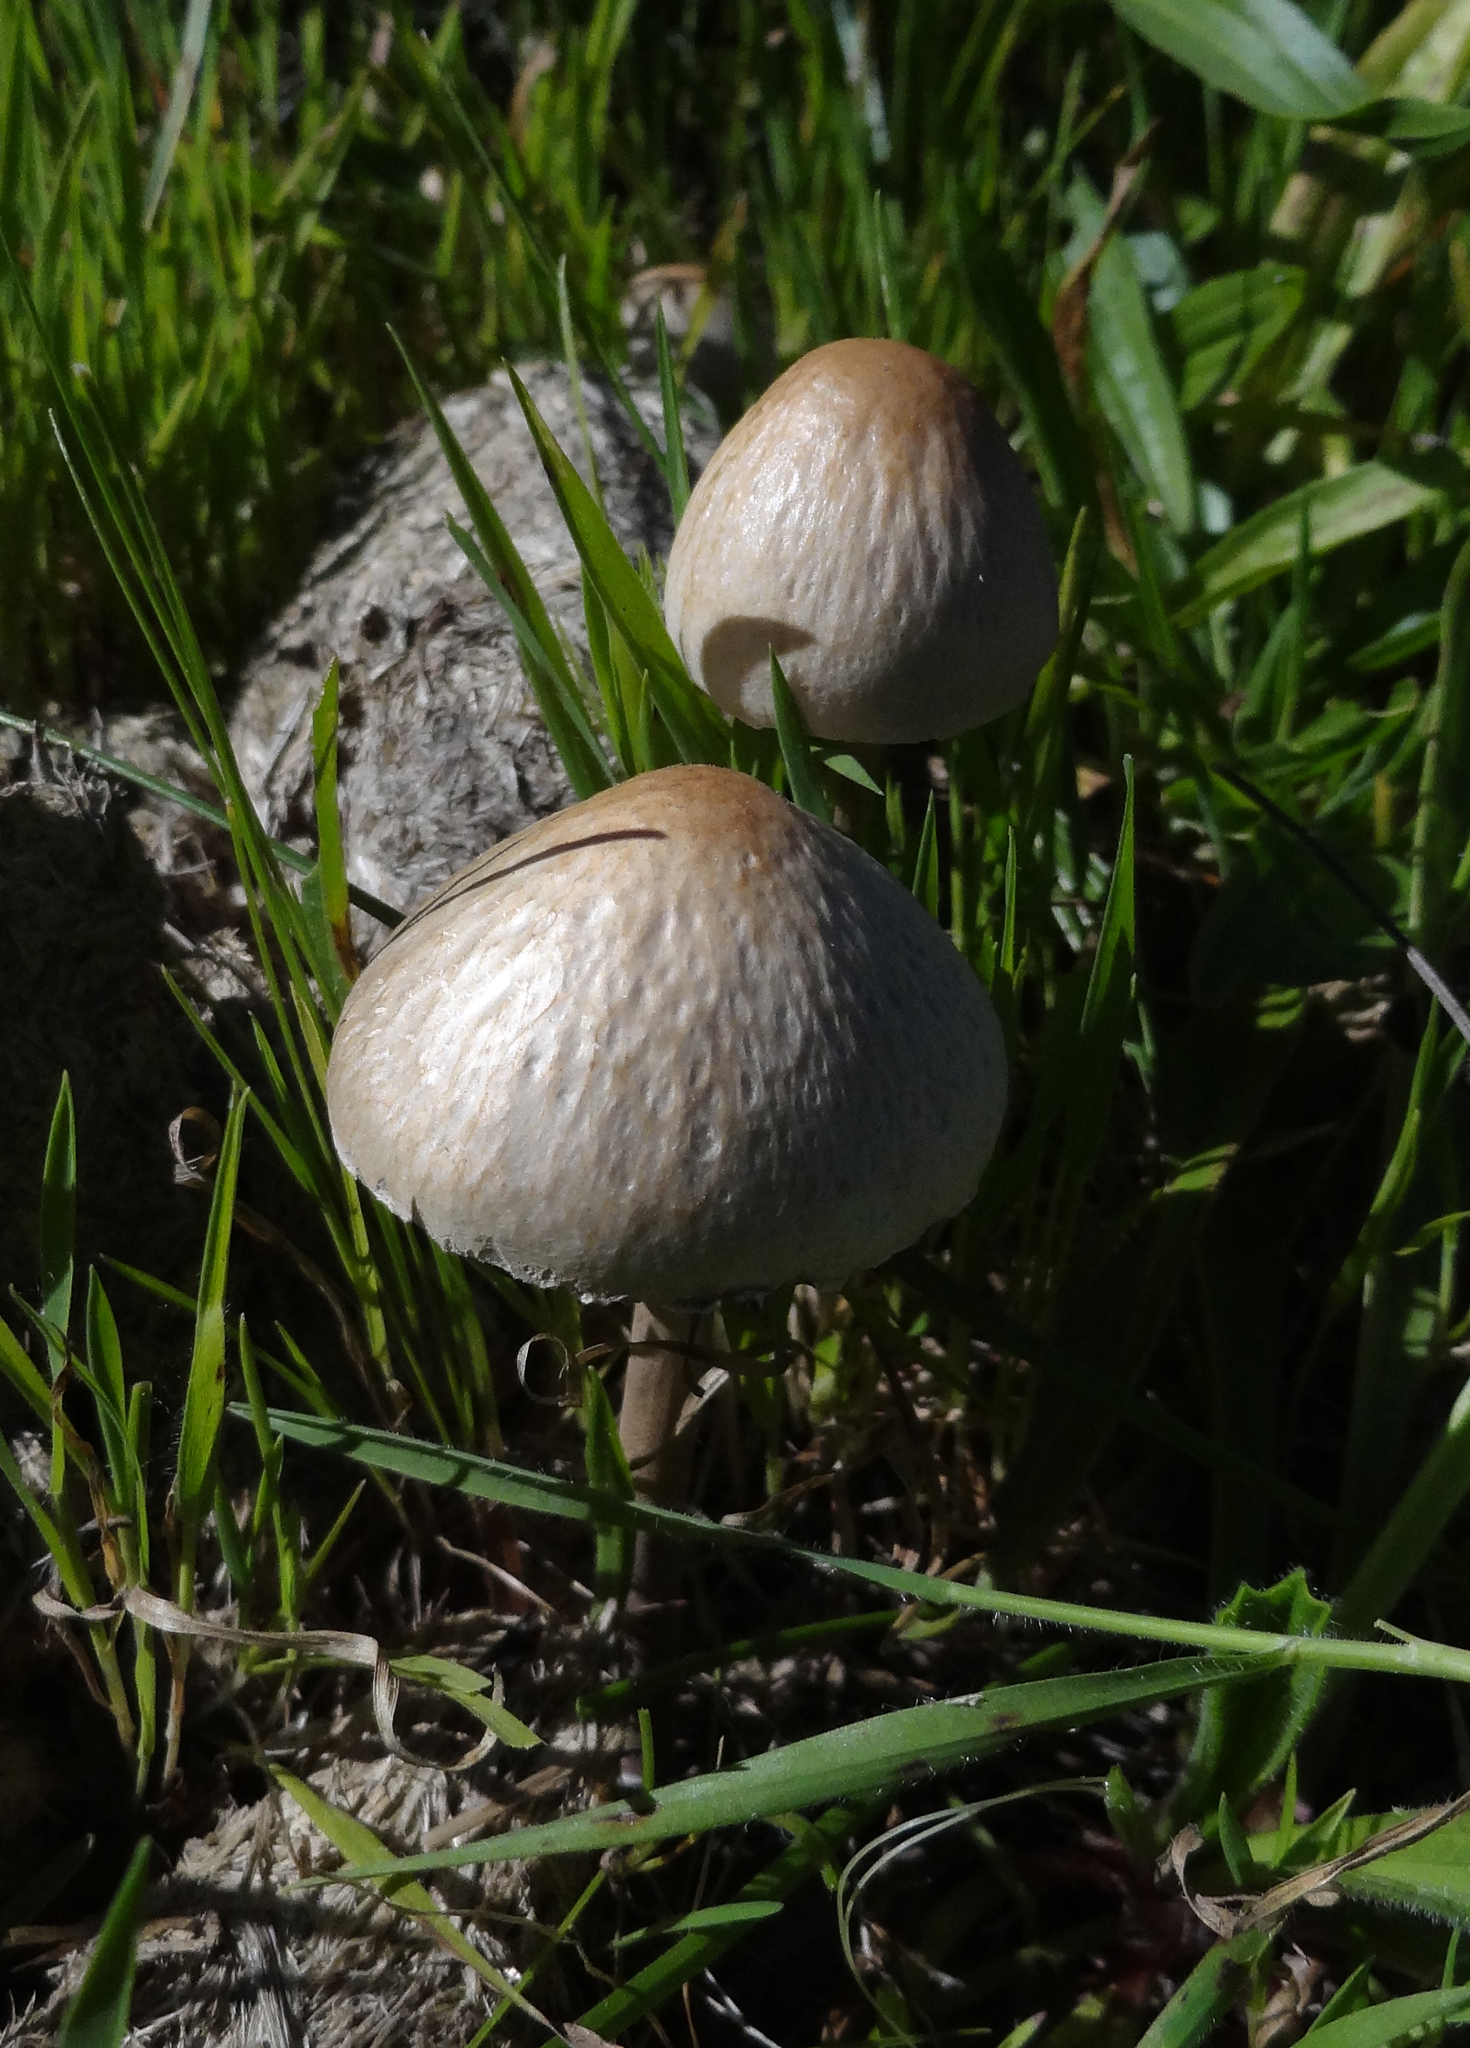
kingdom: Fungi
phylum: Basidiomycota
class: Agaricomycetes
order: Agaricales
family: Bolbitiaceae
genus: Panaeolus
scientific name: Panaeolus papilionaceus
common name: Petticoat mottlegill
